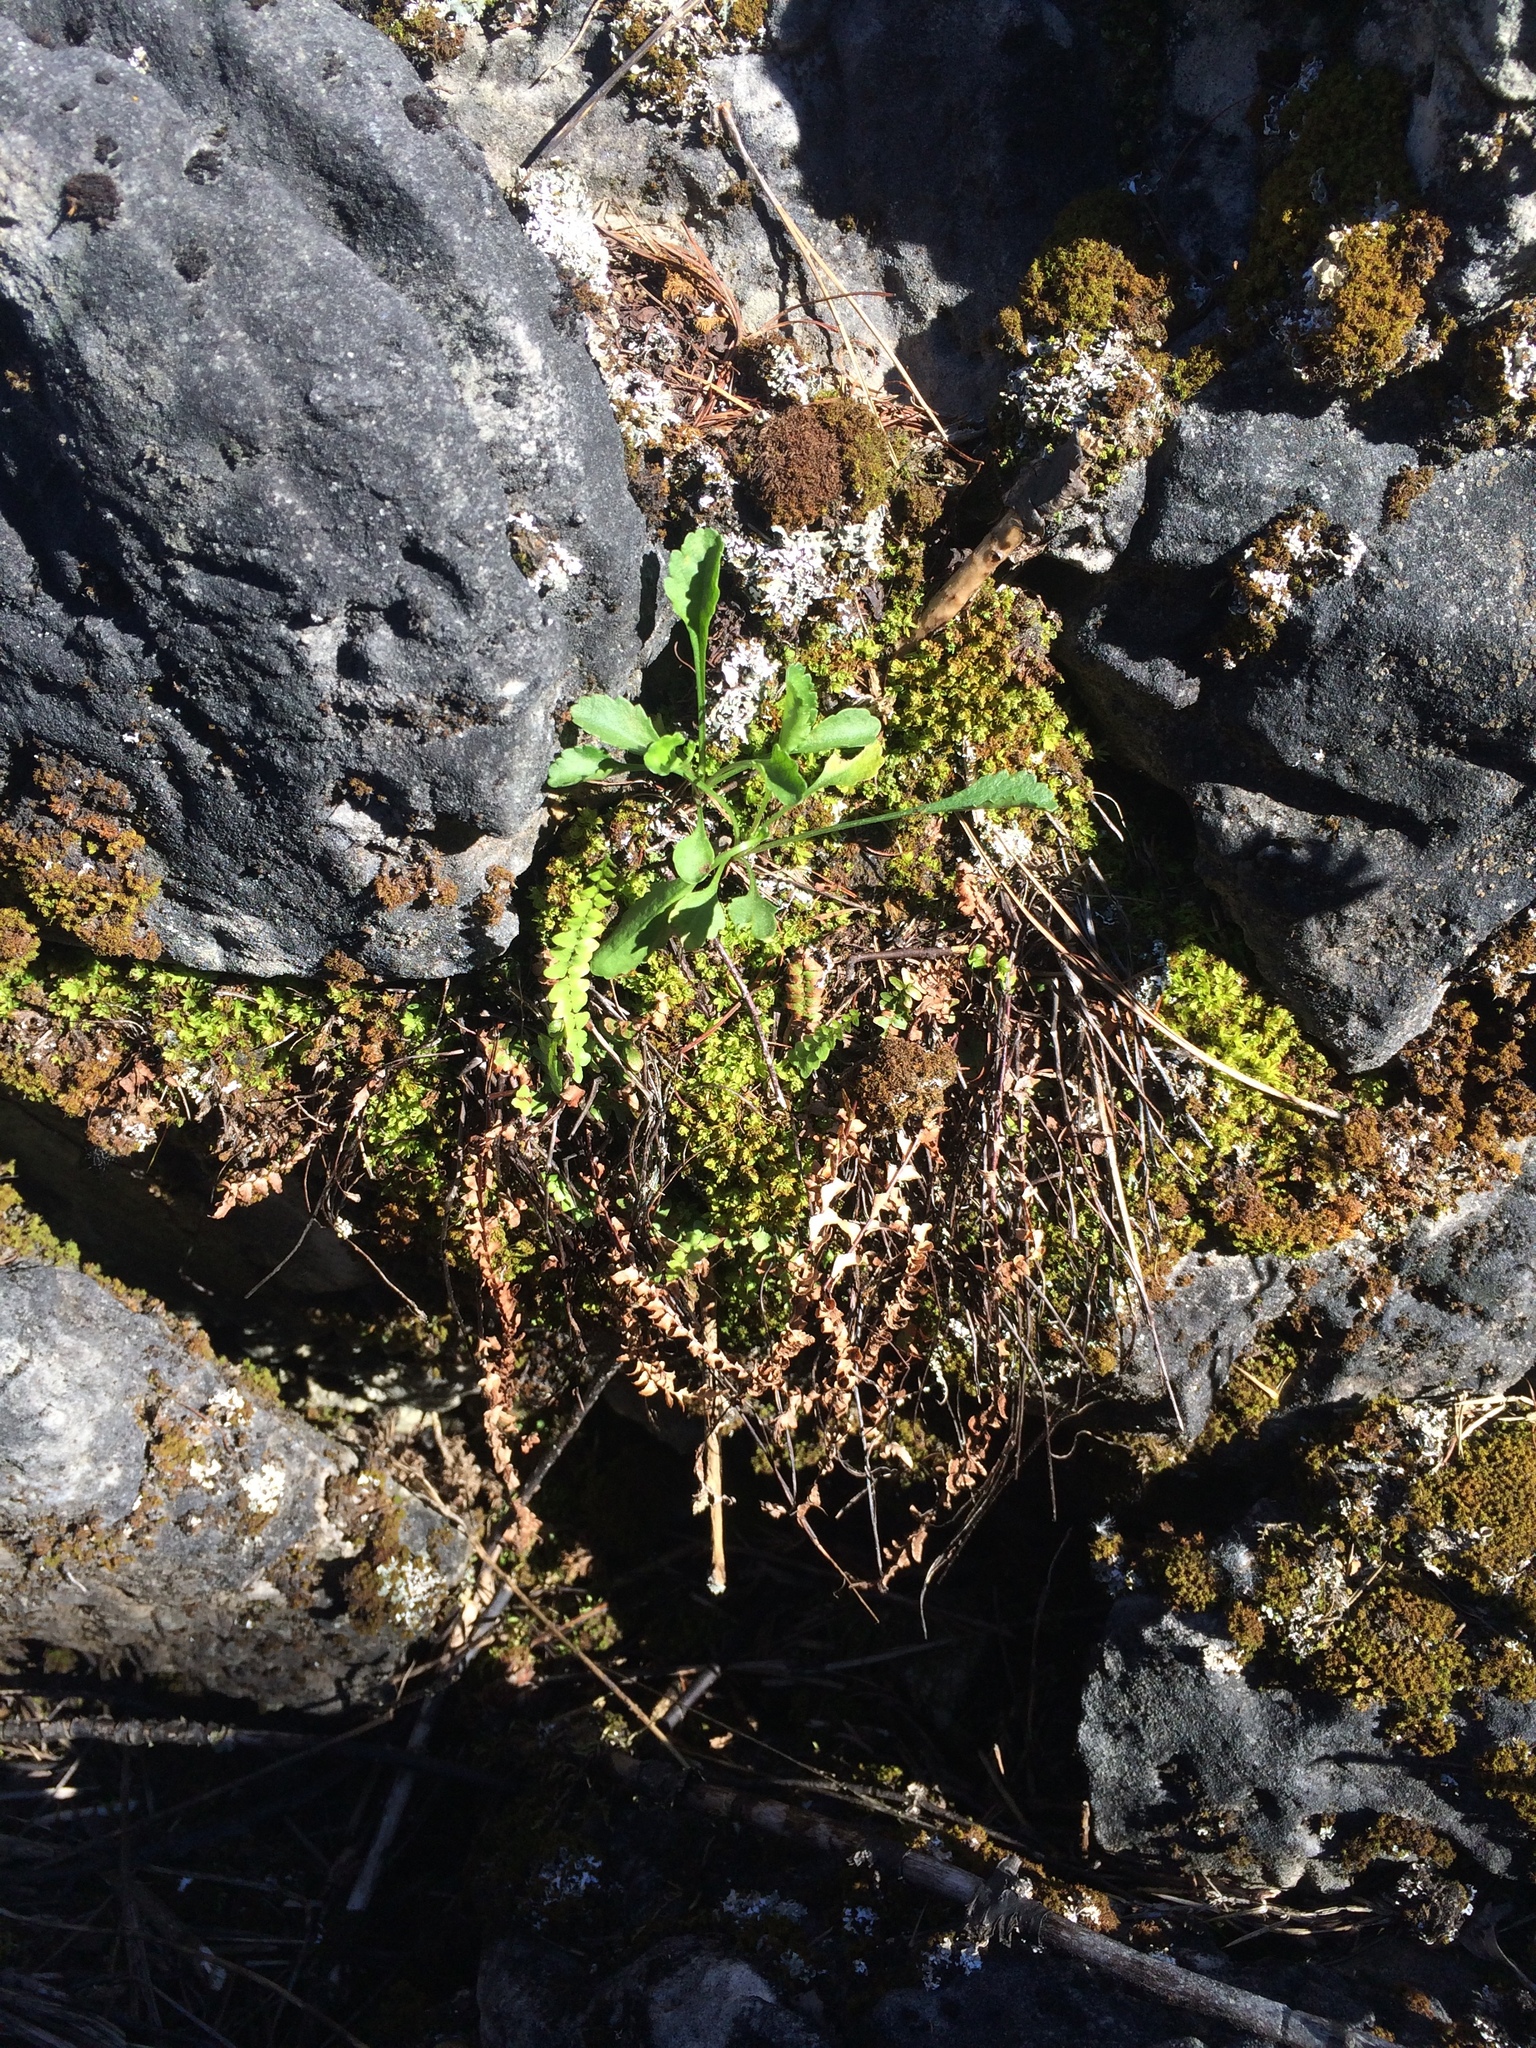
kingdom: Plantae
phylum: Tracheophyta
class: Polypodiopsida
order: Polypodiales
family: Aspleniaceae
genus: Asplenium
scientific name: Asplenium platyneuron
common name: Ebony spleenwort
